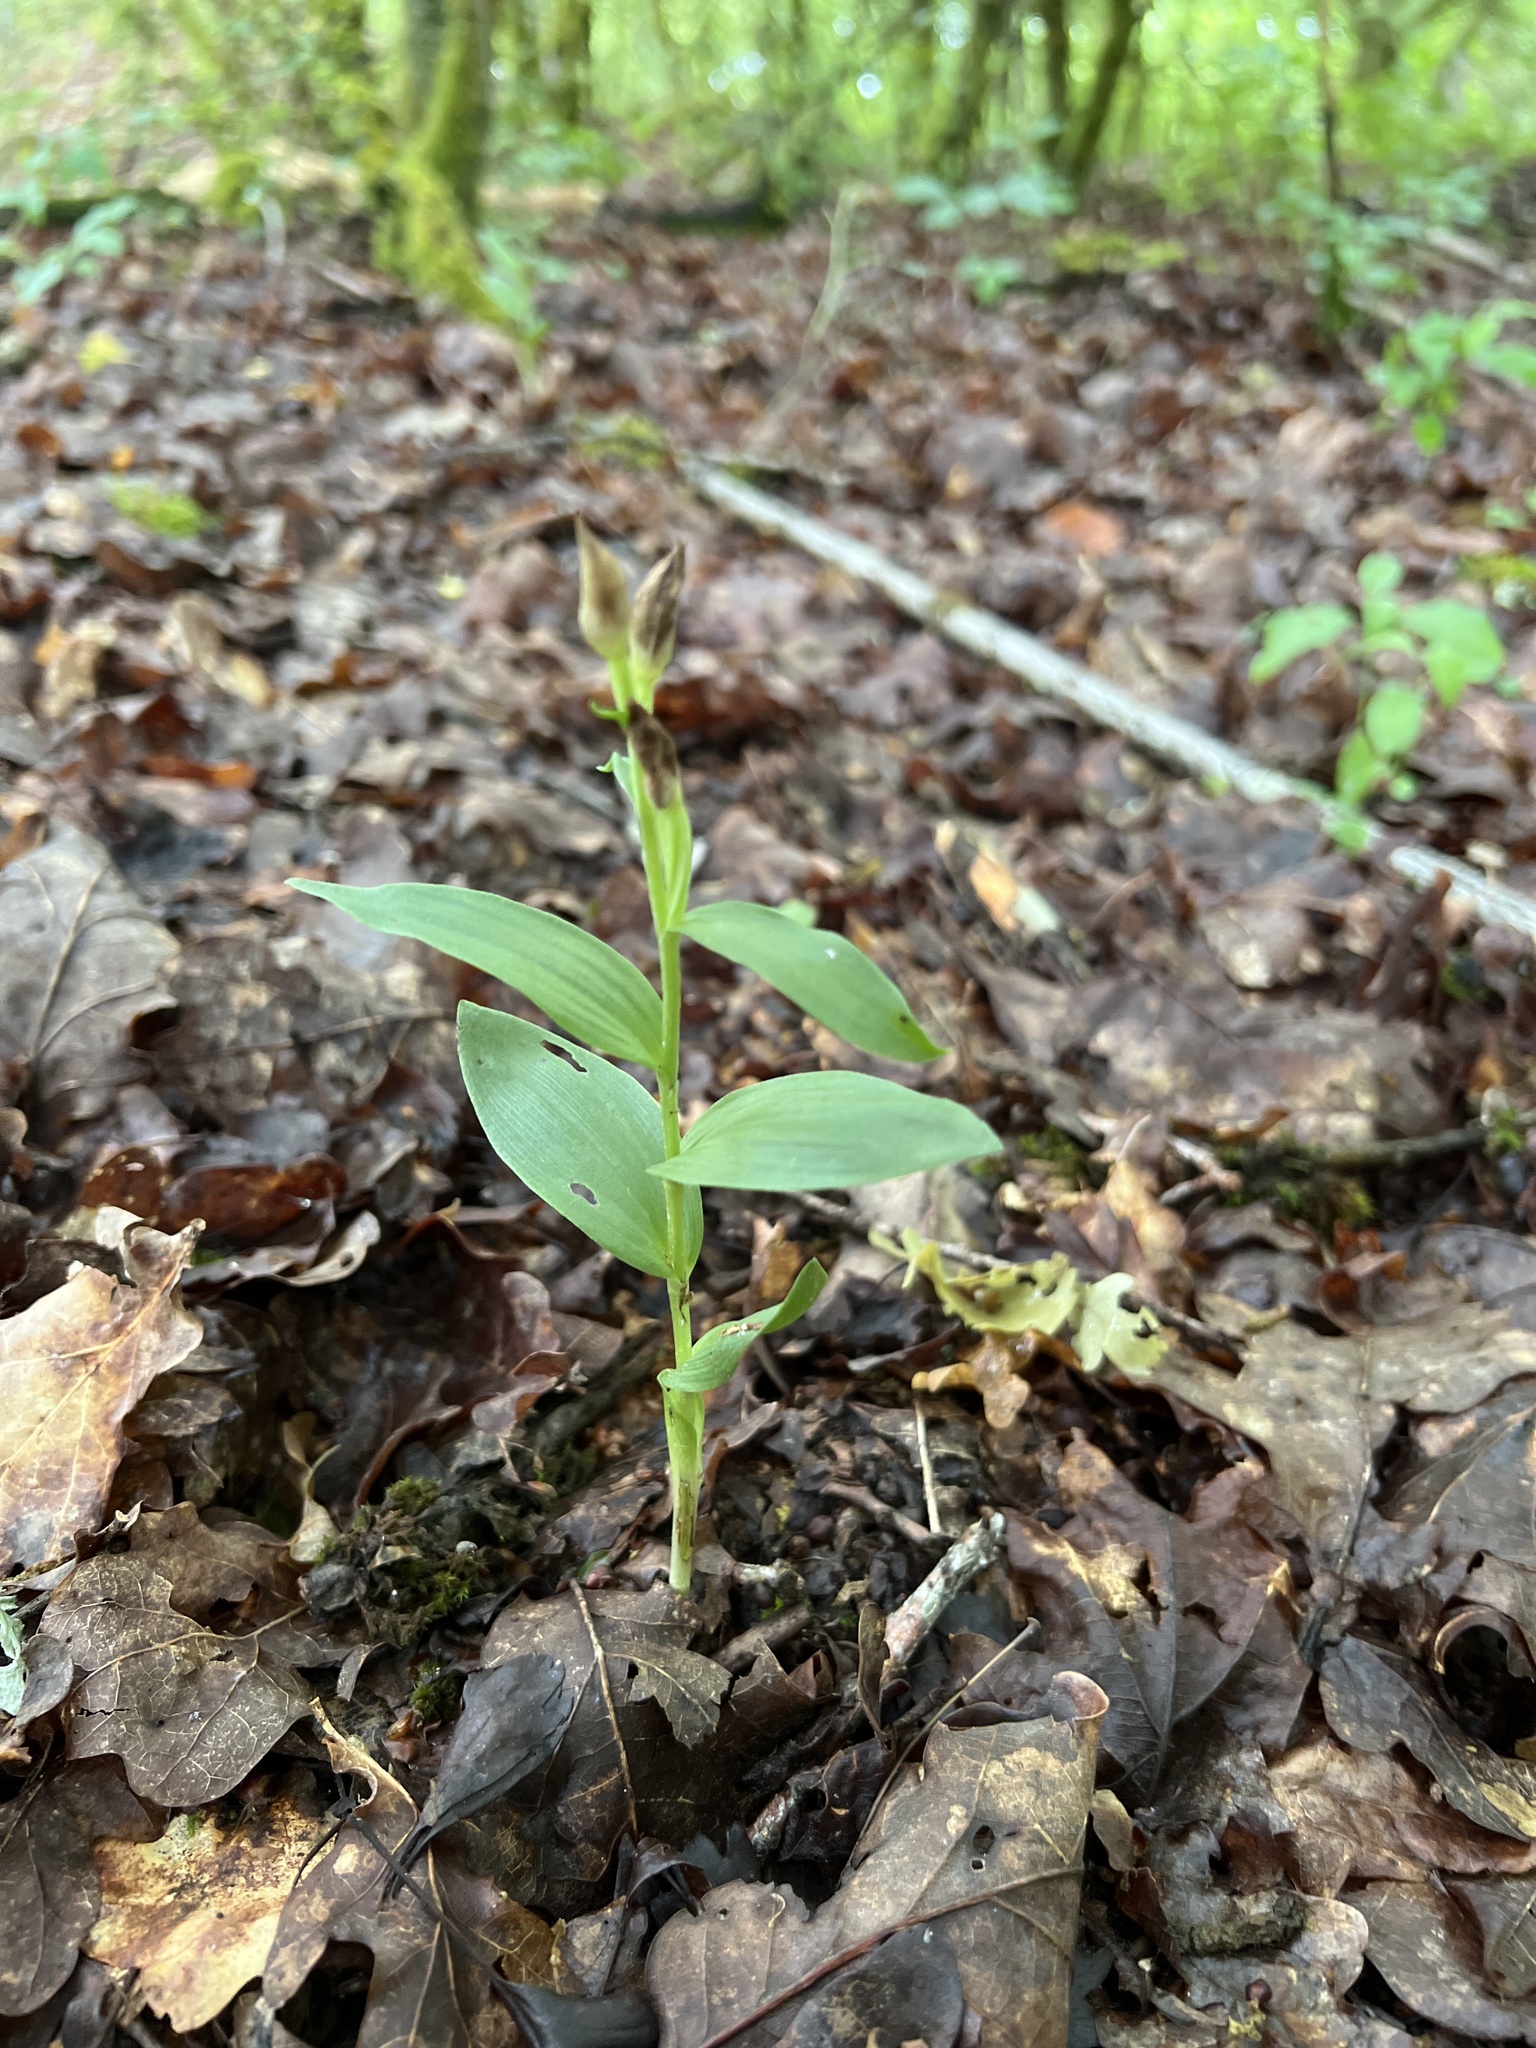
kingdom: Plantae
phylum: Tracheophyta
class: Liliopsida
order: Asparagales
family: Orchidaceae
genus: Cephalanthera
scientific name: Cephalanthera damasonium
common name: White helleborine
